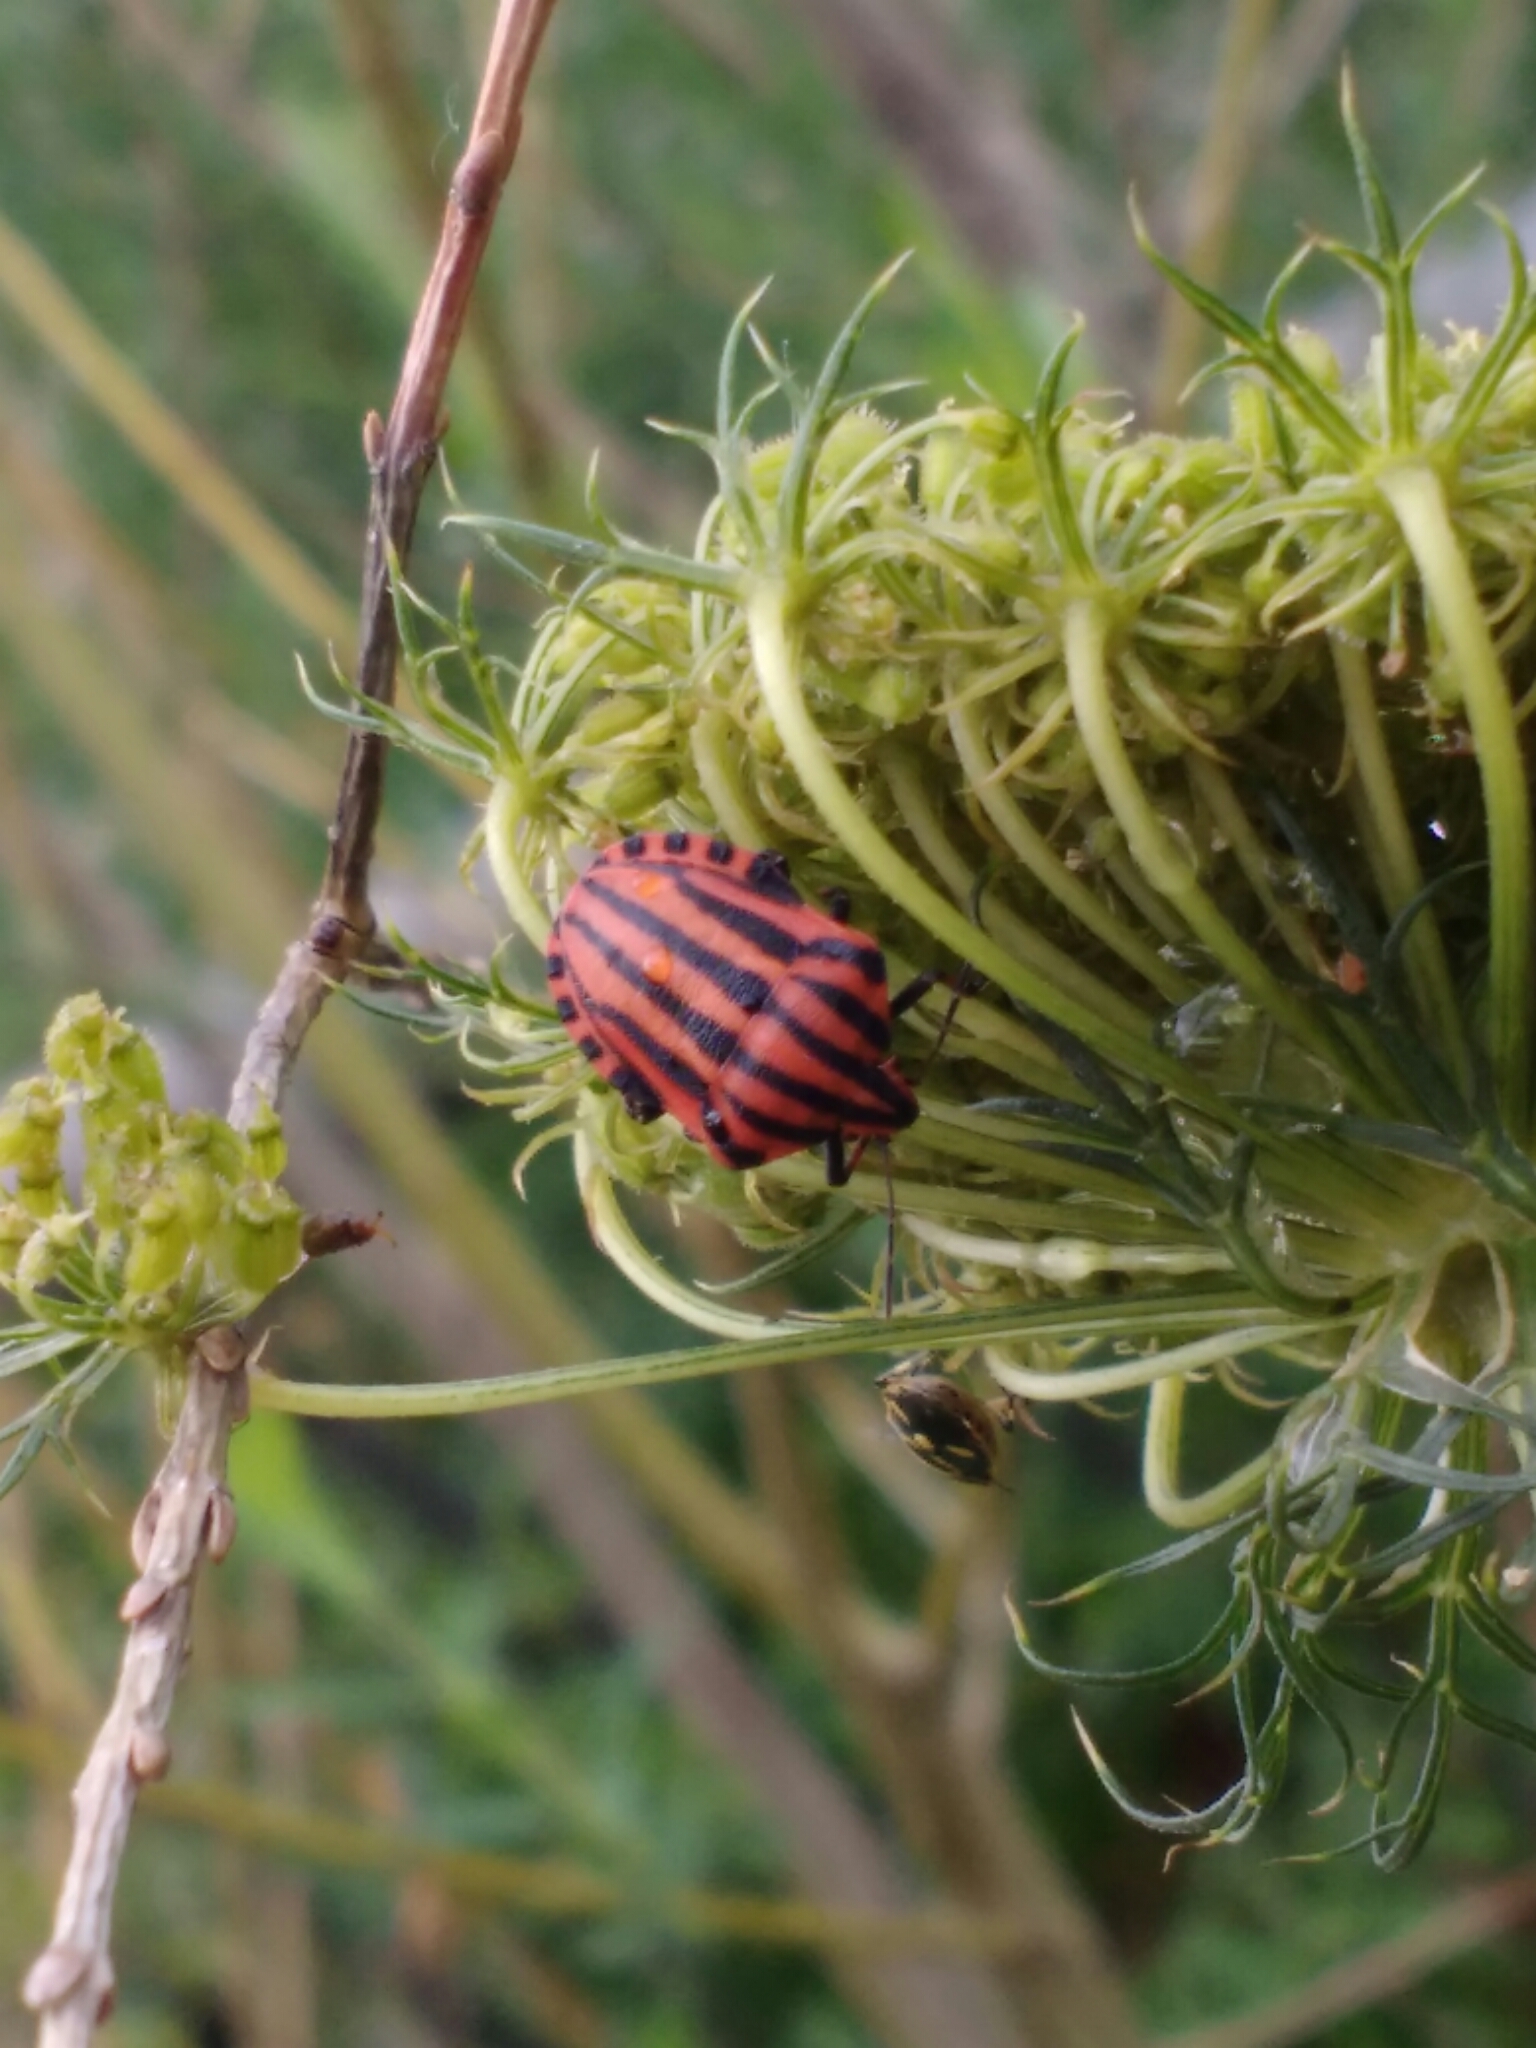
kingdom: Animalia
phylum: Arthropoda
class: Insecta
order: Hemiptera
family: Pentatomidae
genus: Graphosoma
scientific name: Graphosoma italicum
